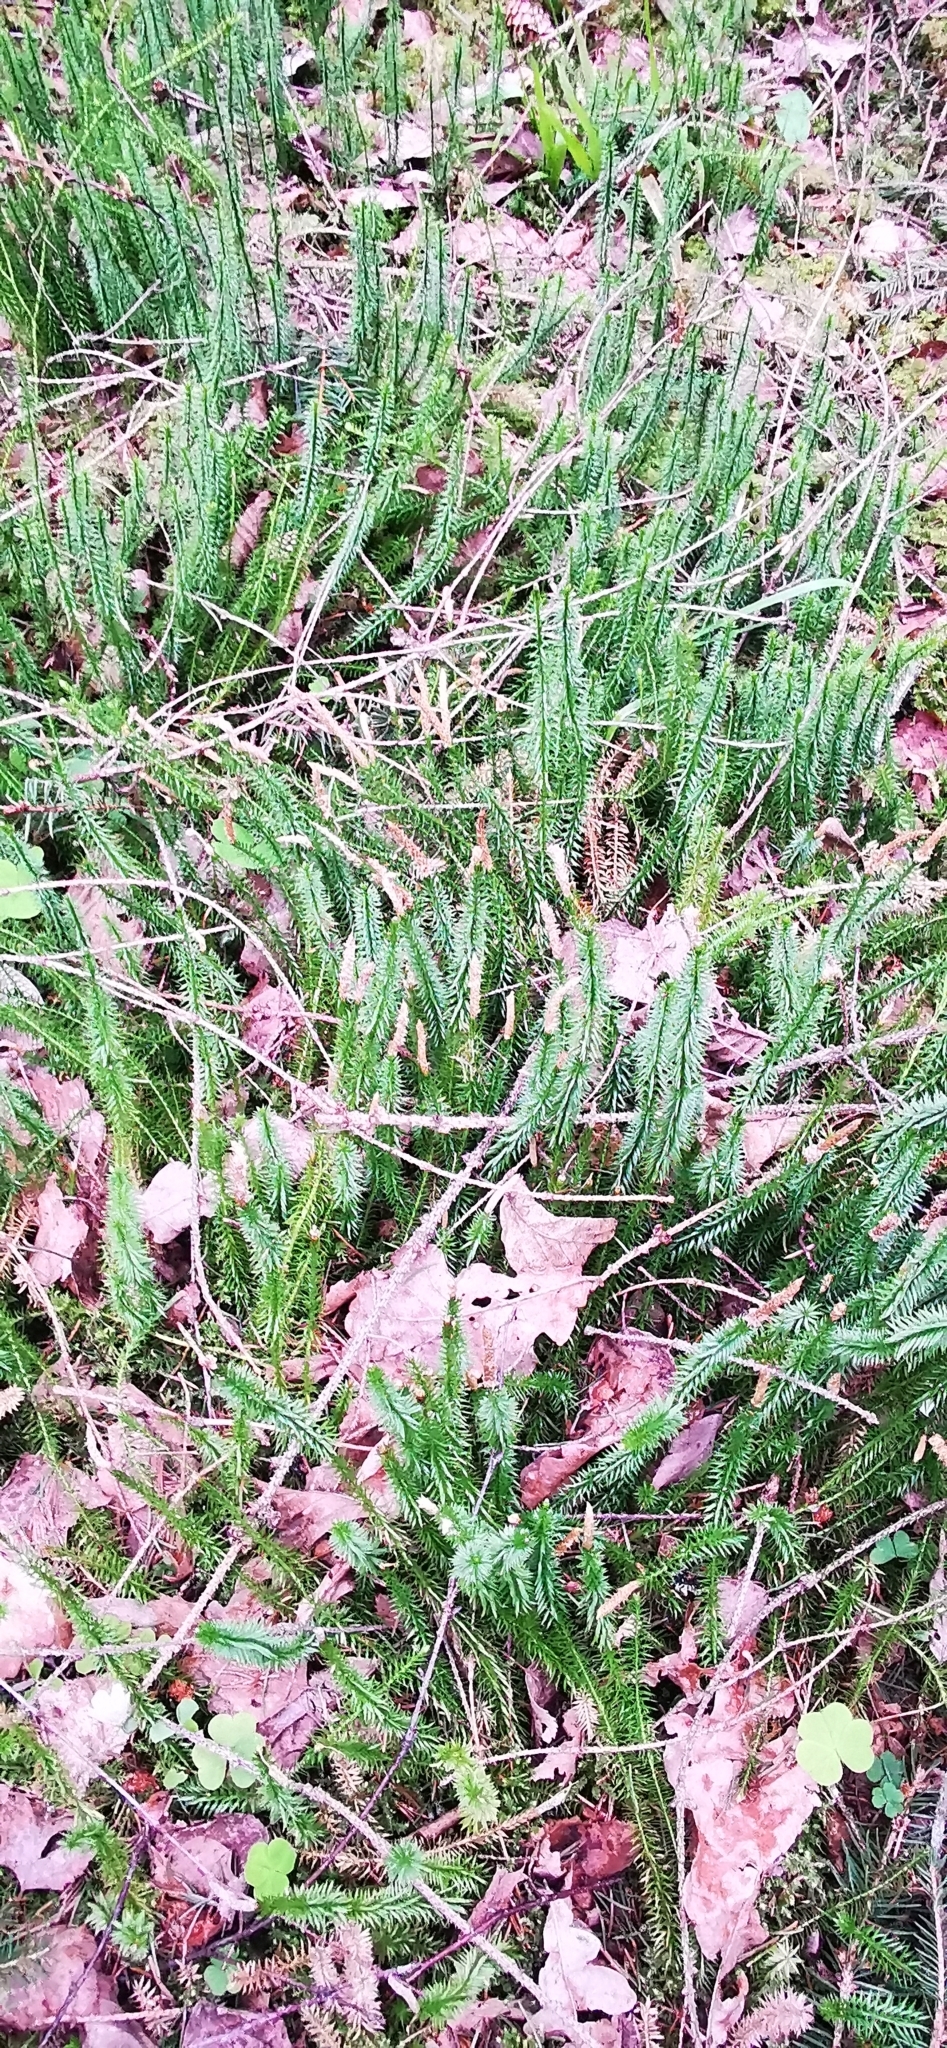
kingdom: Plantae
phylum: Tracheophyta
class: Lycopodiopsida
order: Lycopodiales
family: Lycopodiaceae
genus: Spinulum
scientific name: Spinulum annotinum
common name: Interrupted club-moss
